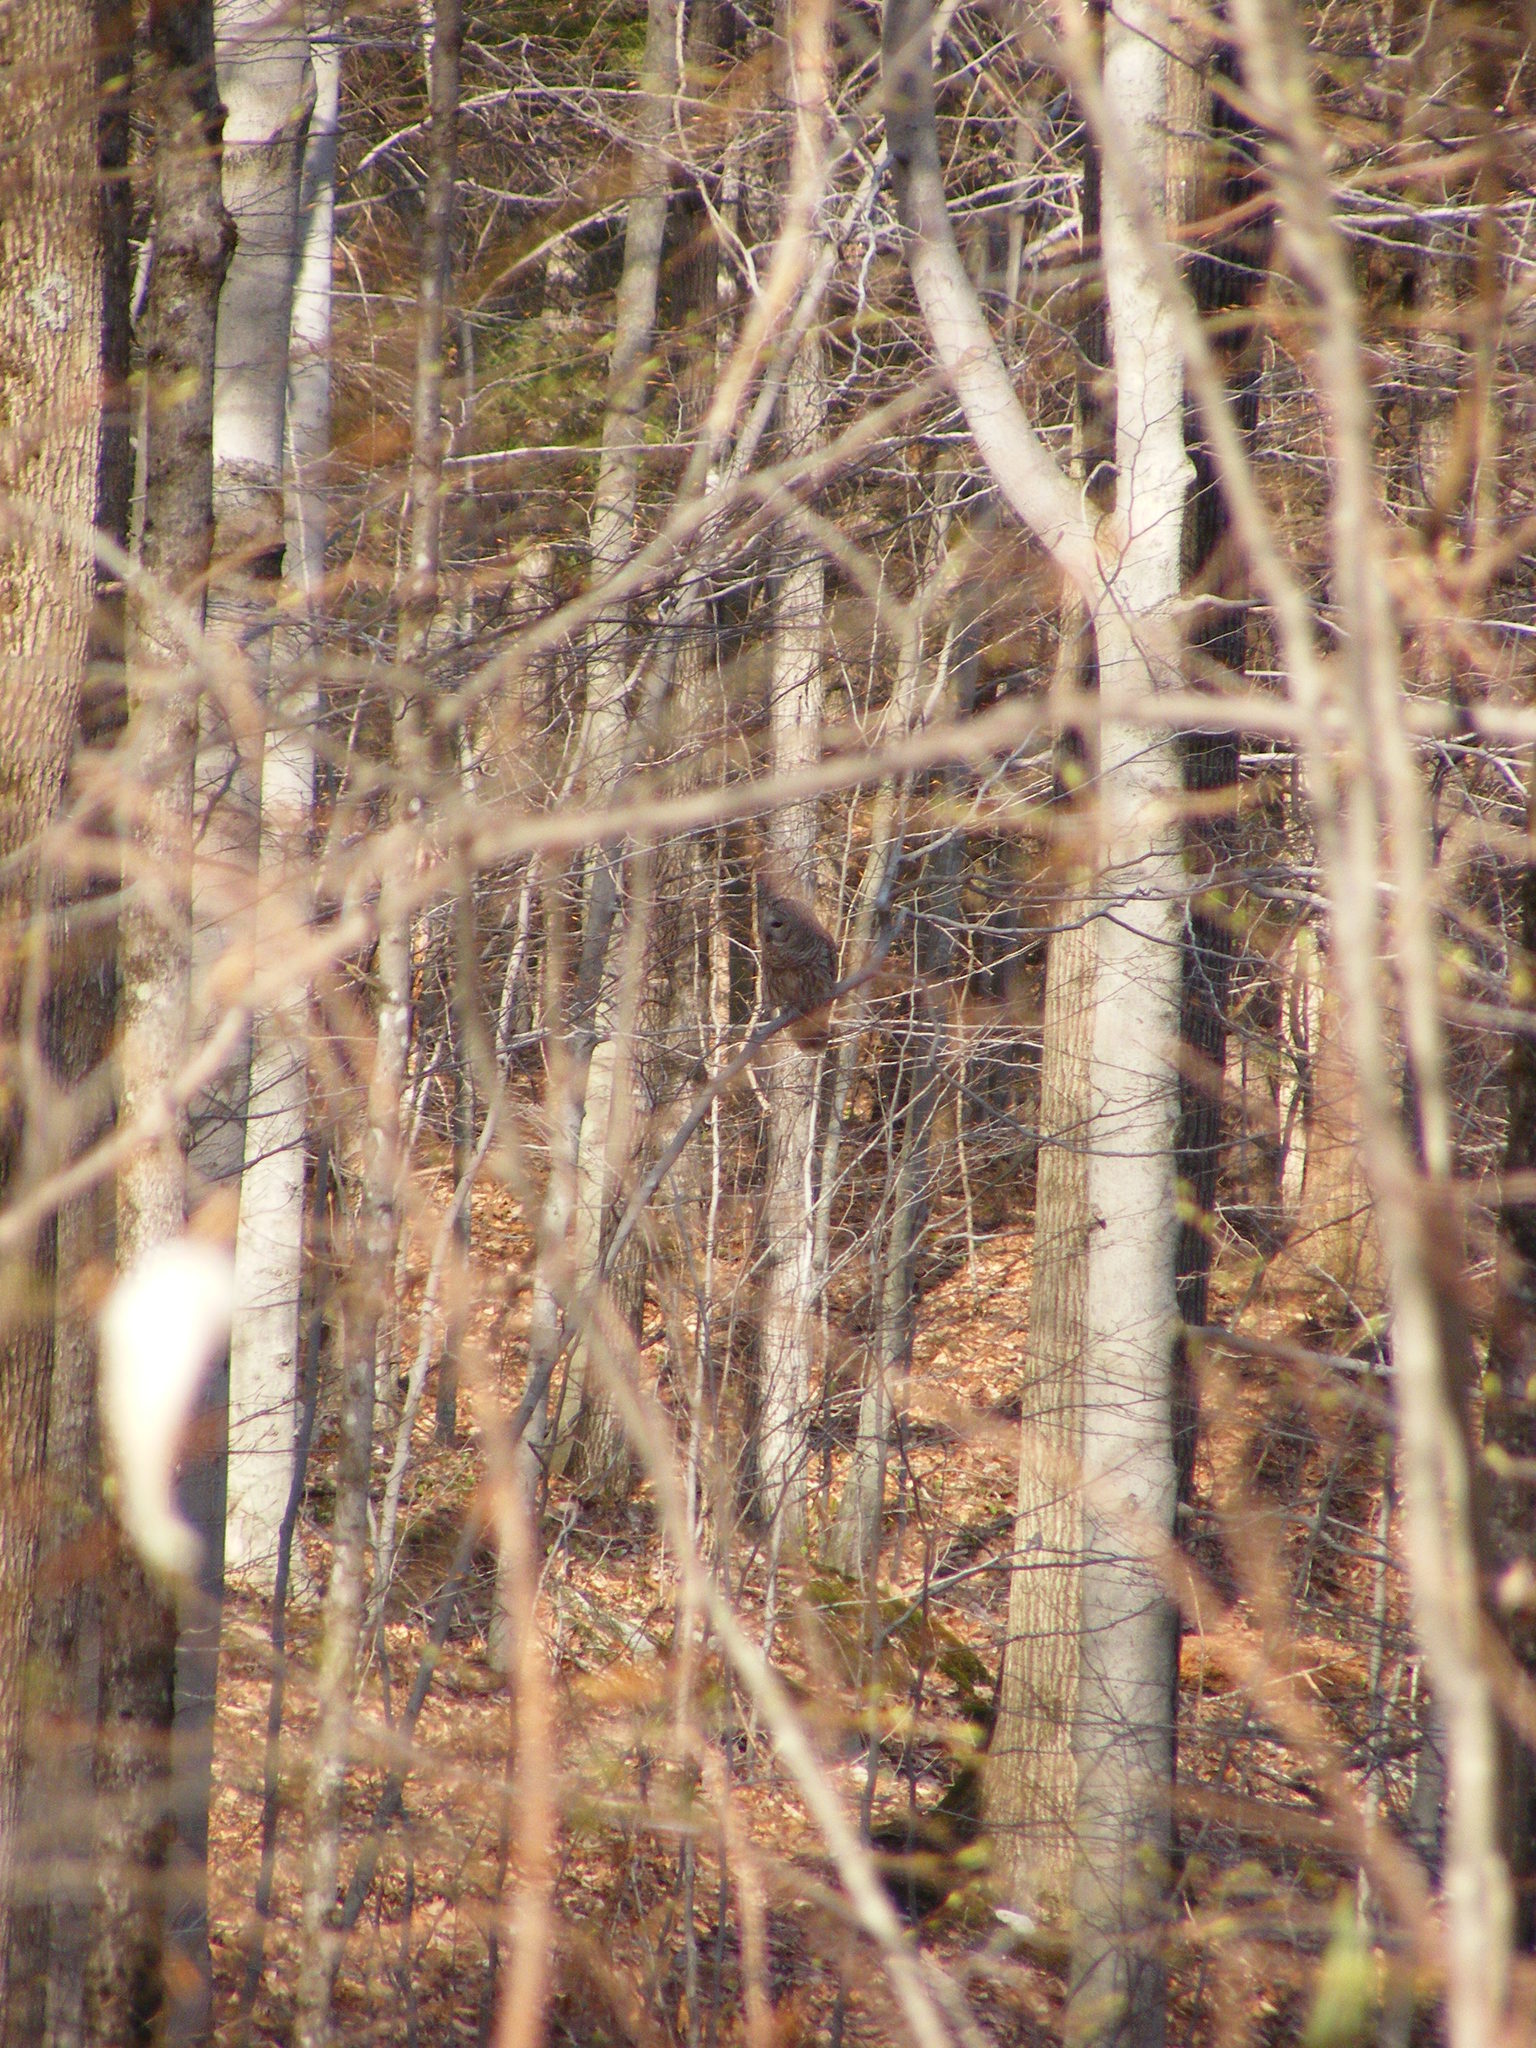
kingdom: Animalia
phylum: Chordata
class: Aves
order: Strigiformes
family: Strigidae
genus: Strix
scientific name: Strix varia
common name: Barred owl
